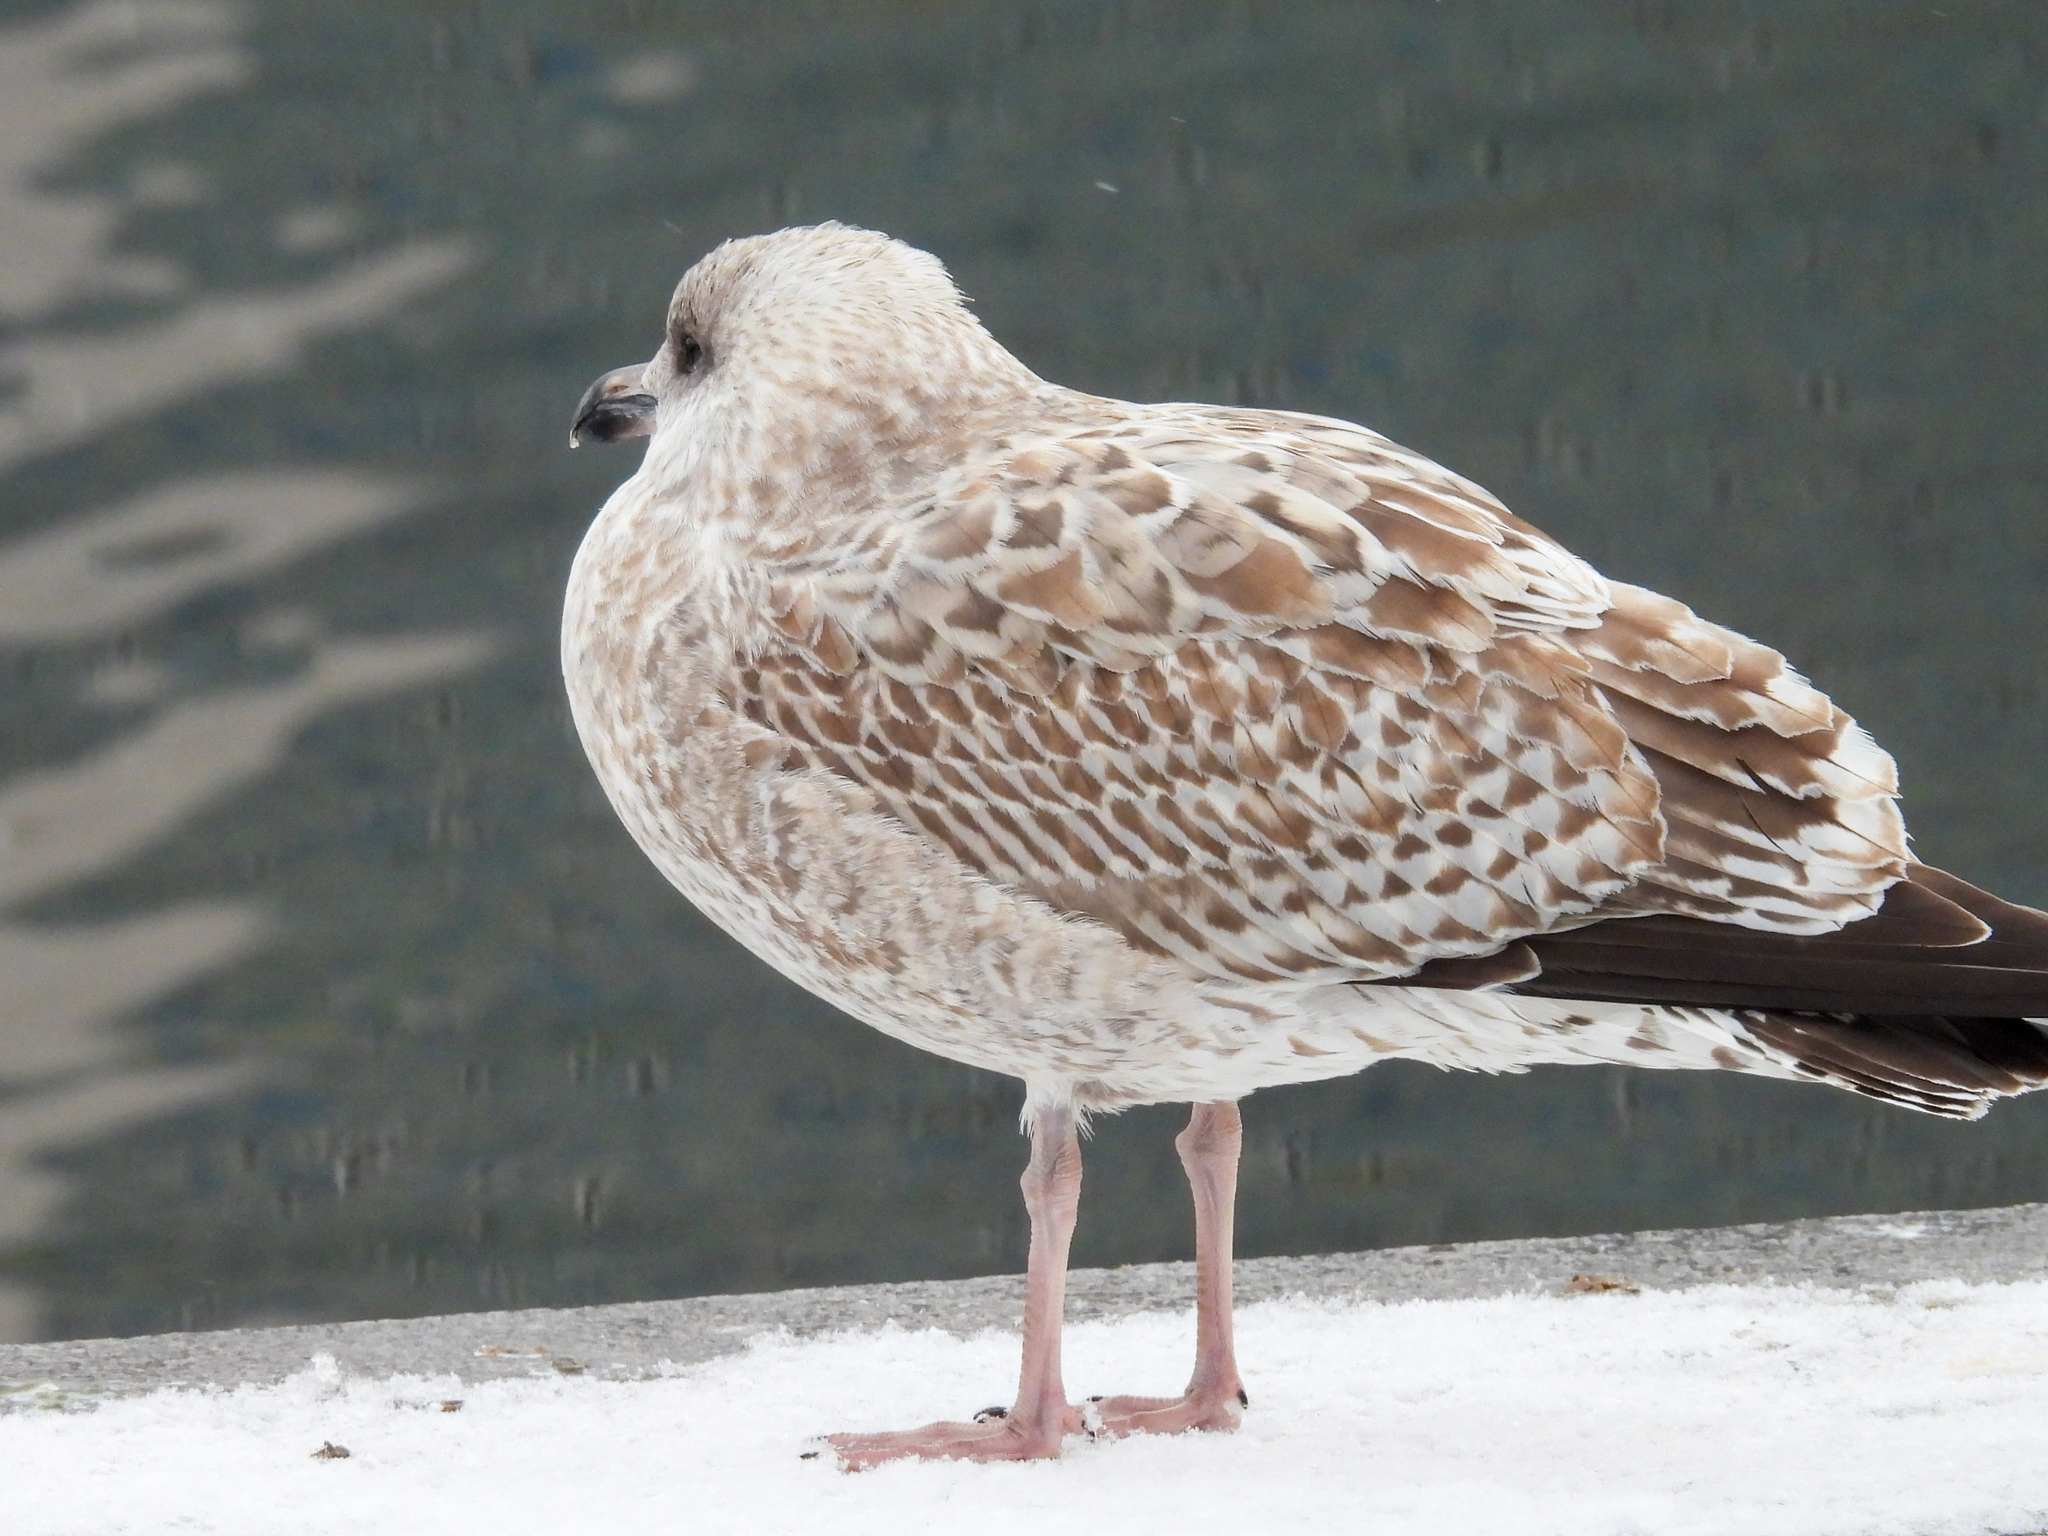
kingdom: Animalia
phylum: Chordata
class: Aves
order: Charadriiformes
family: Laridae
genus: Larus
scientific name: Larus argentatus
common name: Herring gull
